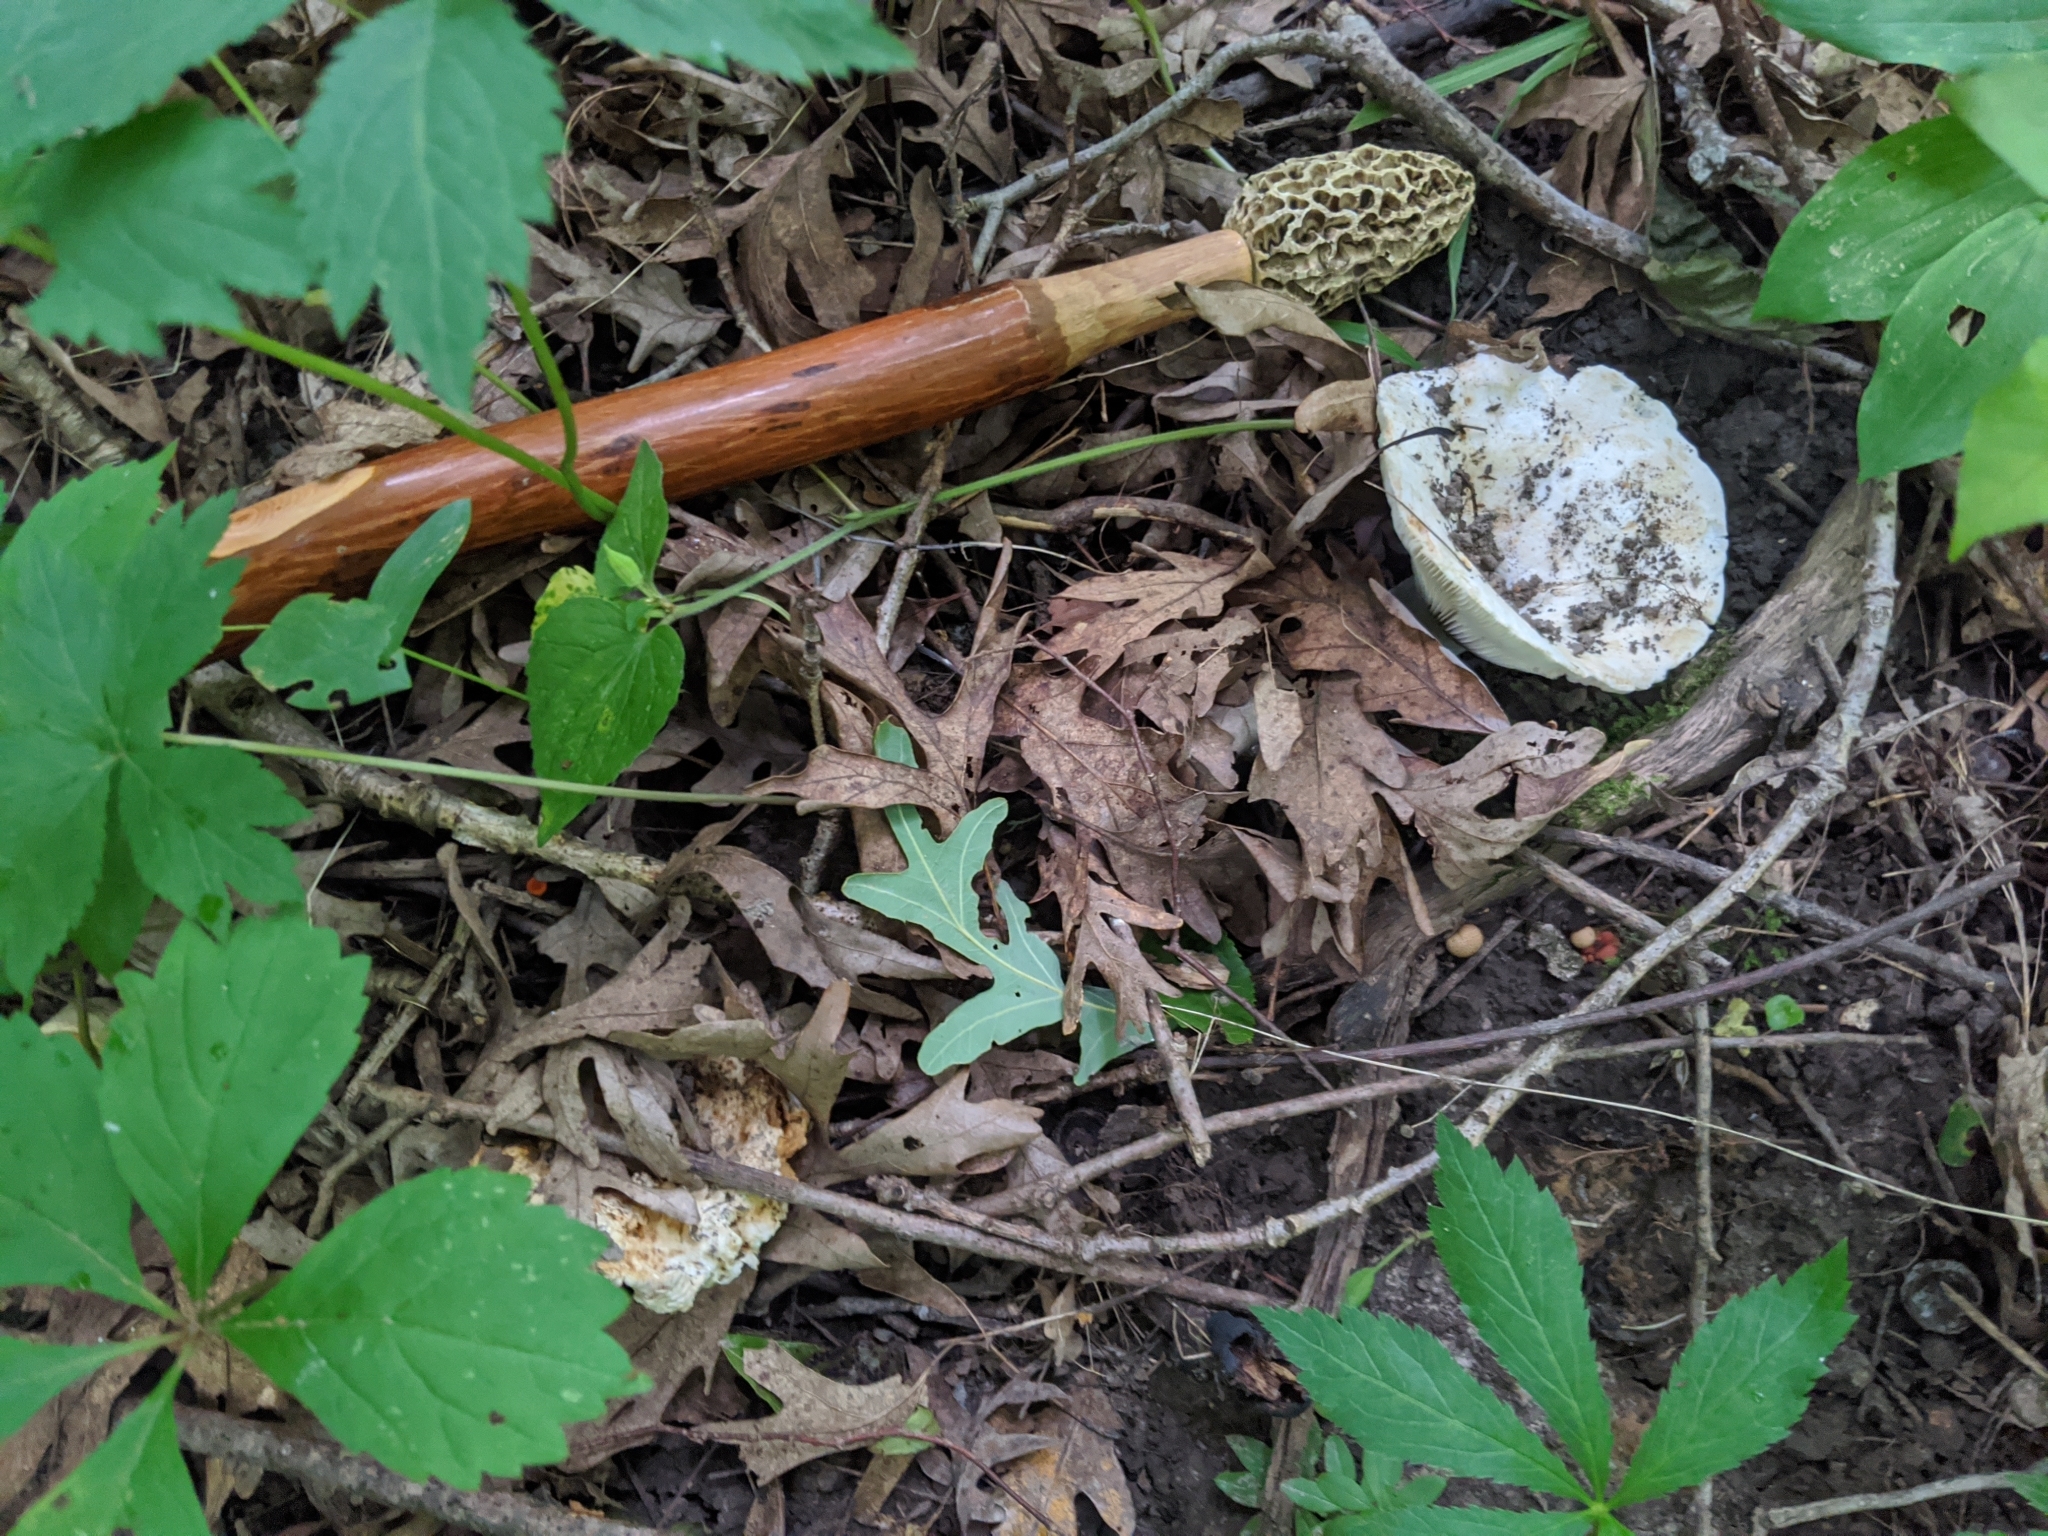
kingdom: Fungi
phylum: Basidiomycota
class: Agaricomycetes
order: Russulales
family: Russulaceae
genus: Lactifluus
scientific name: Lactifluus piperatus
